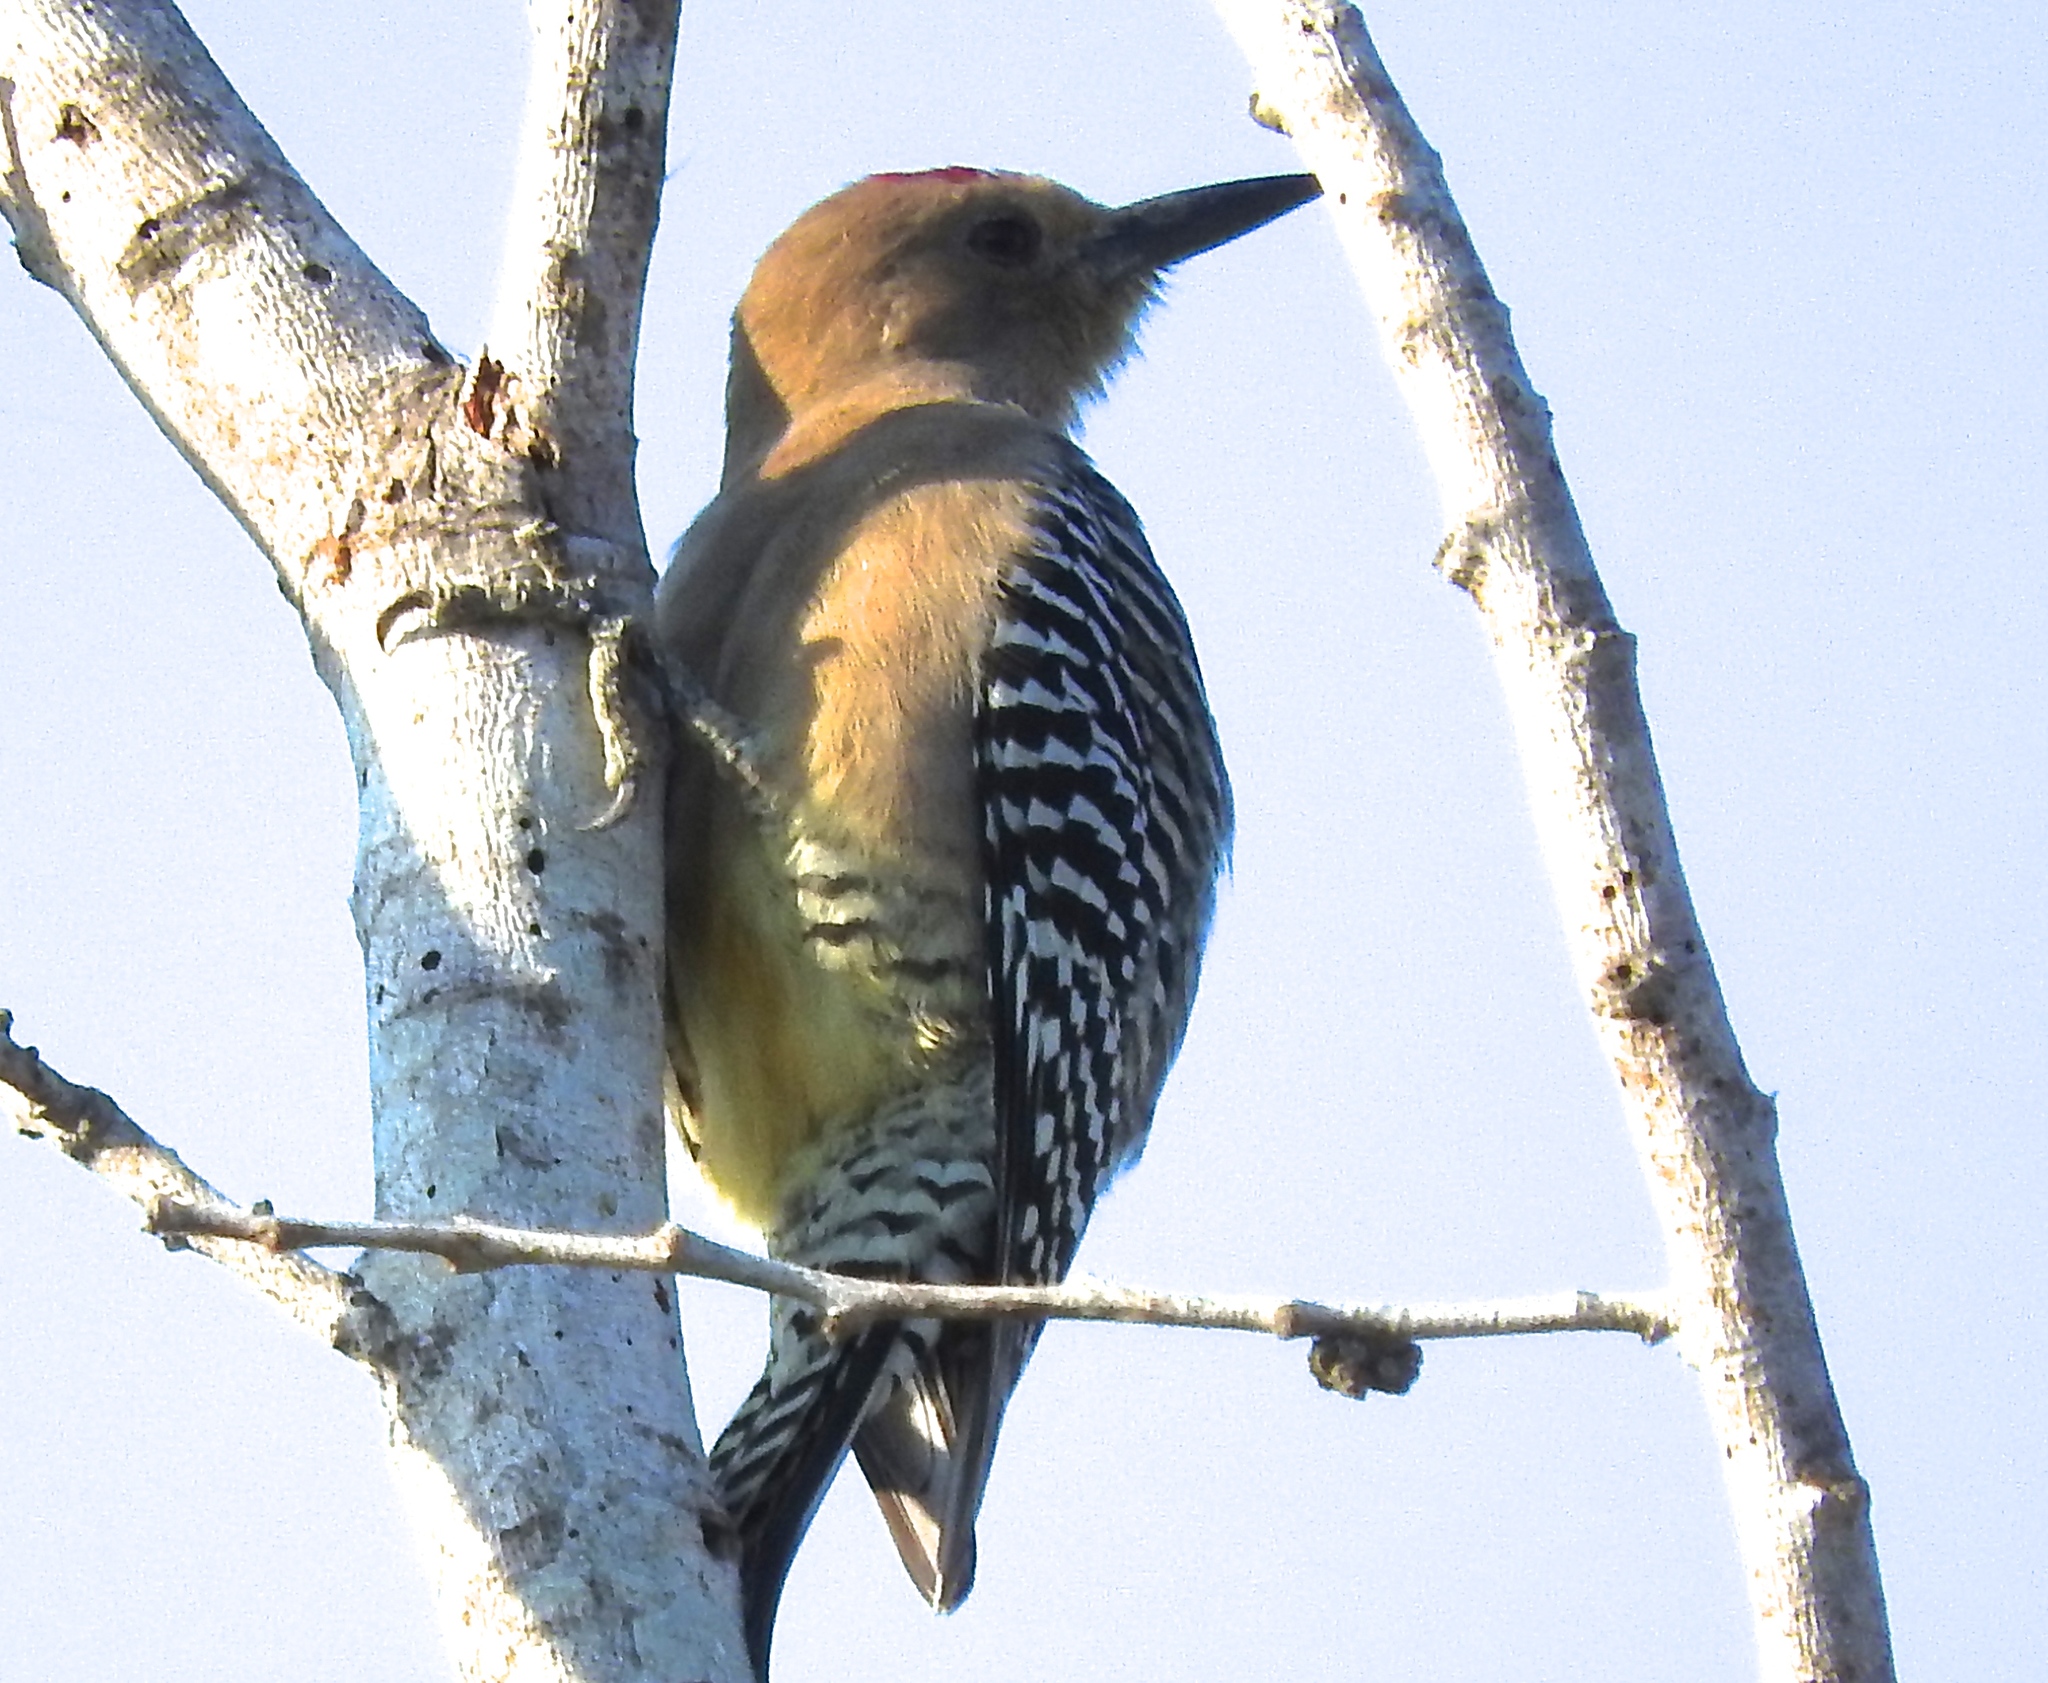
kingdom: Animalia
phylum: Chordata
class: Aves
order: Piciformes
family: Picidae
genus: Melanerpes
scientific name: Melanerpes uropygialis
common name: Gila woodpecker
